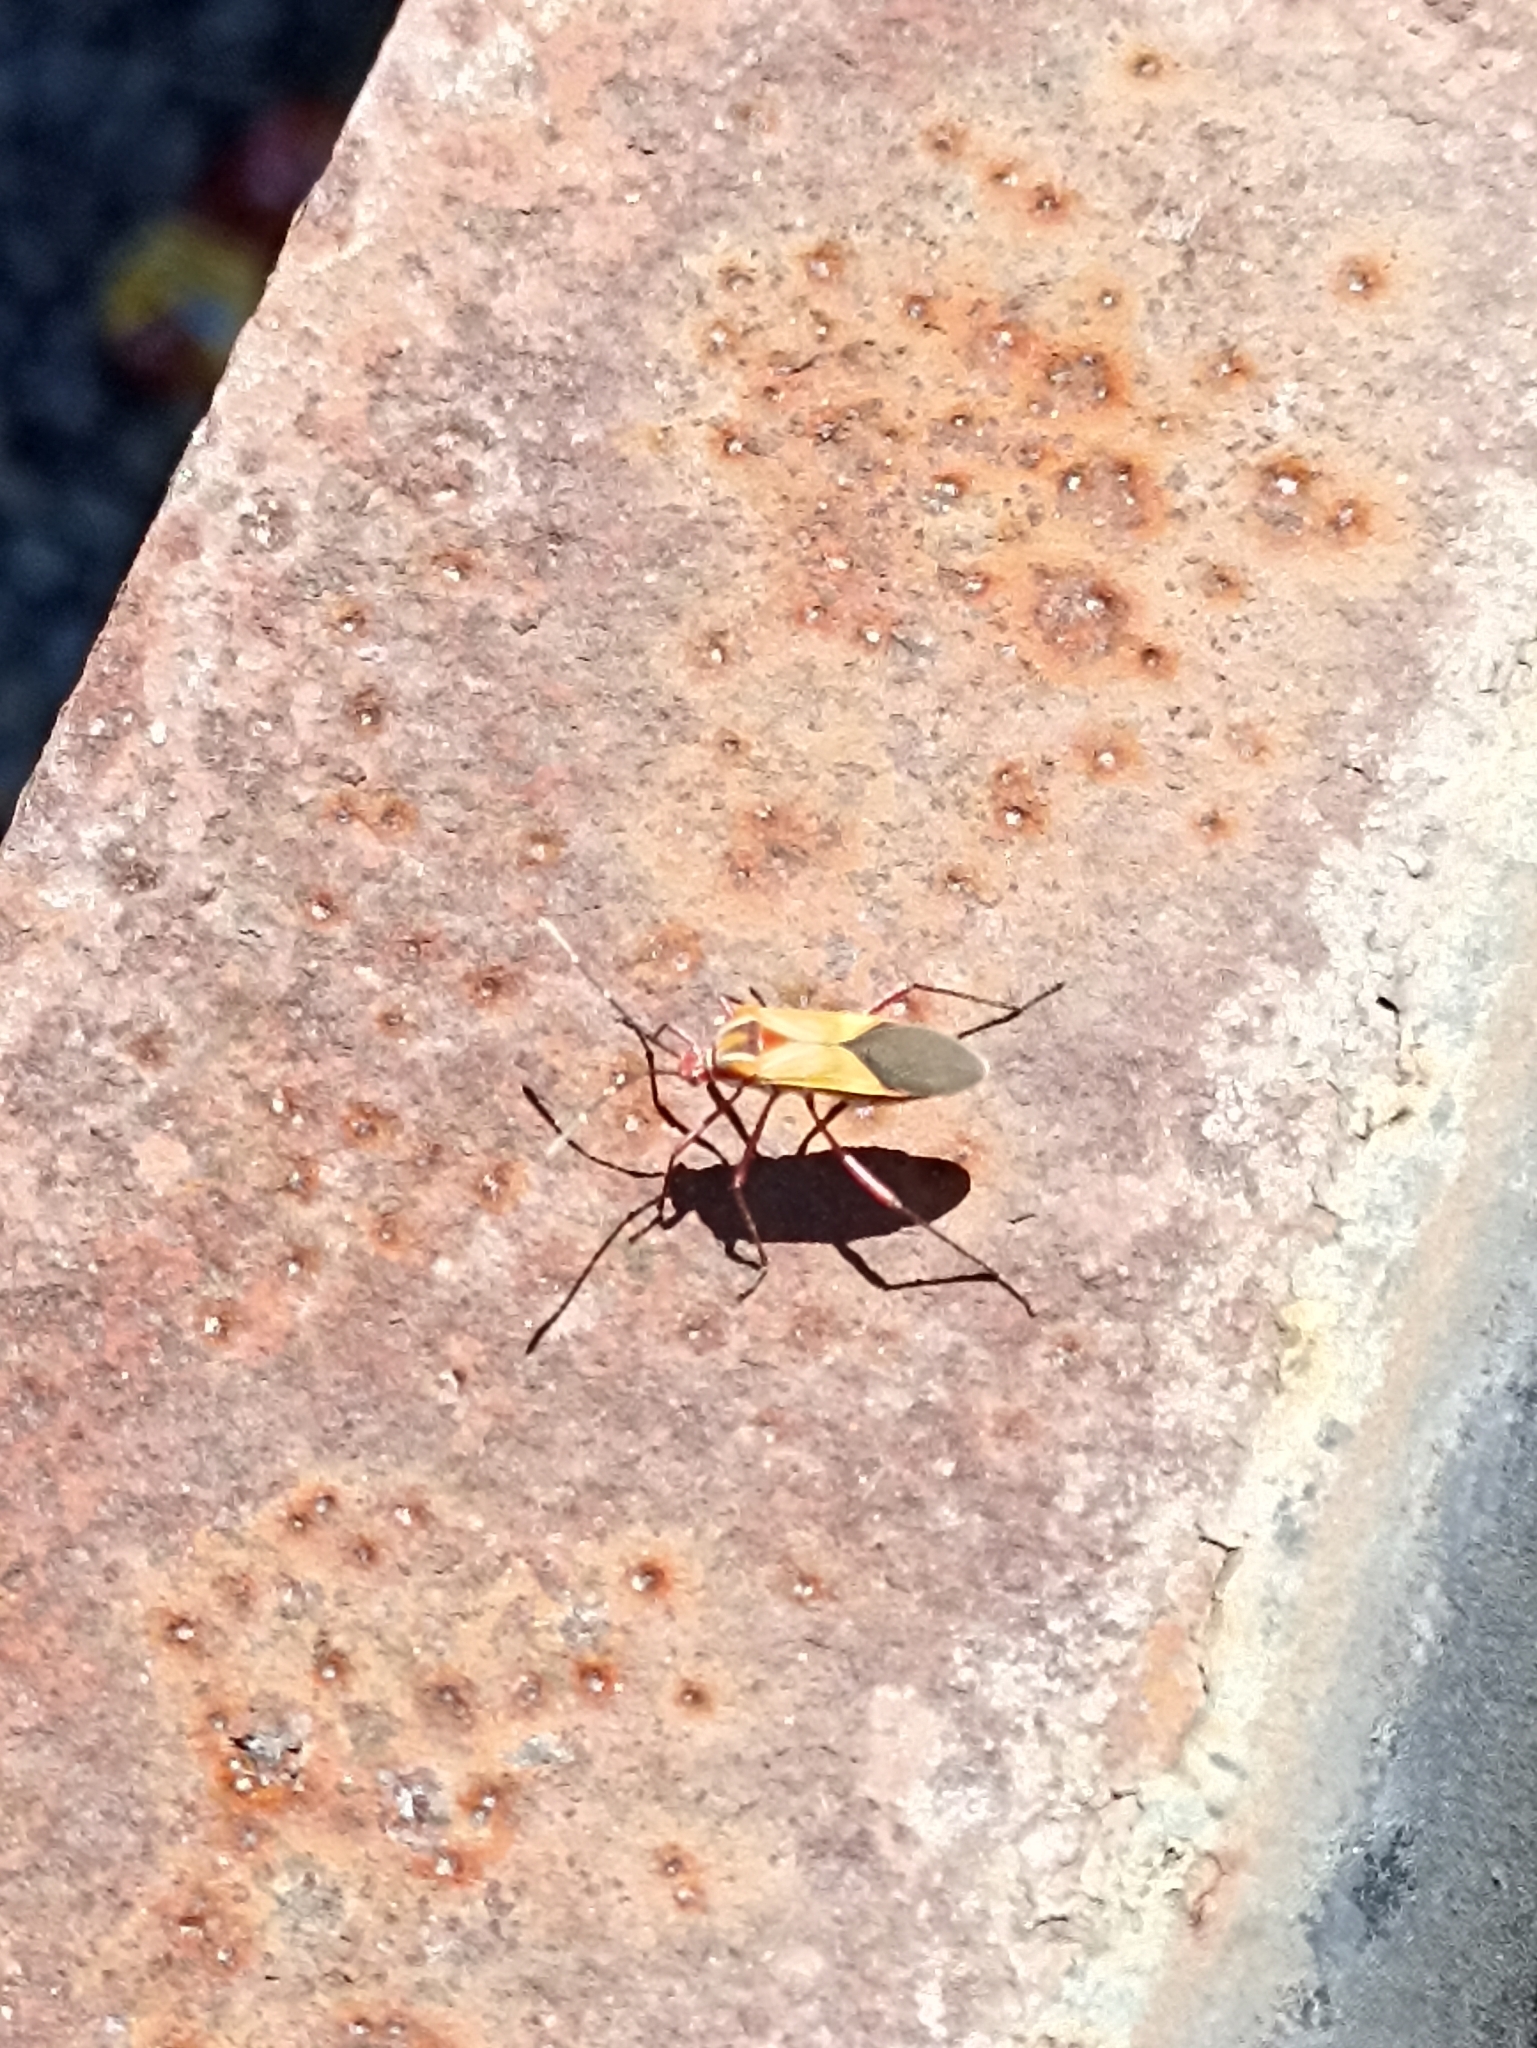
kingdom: Animalia
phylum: Arthropoda
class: Insecta
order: Hemiptera
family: Coreidae
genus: Hypselonotus
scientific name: Hypselonotus interruptus
